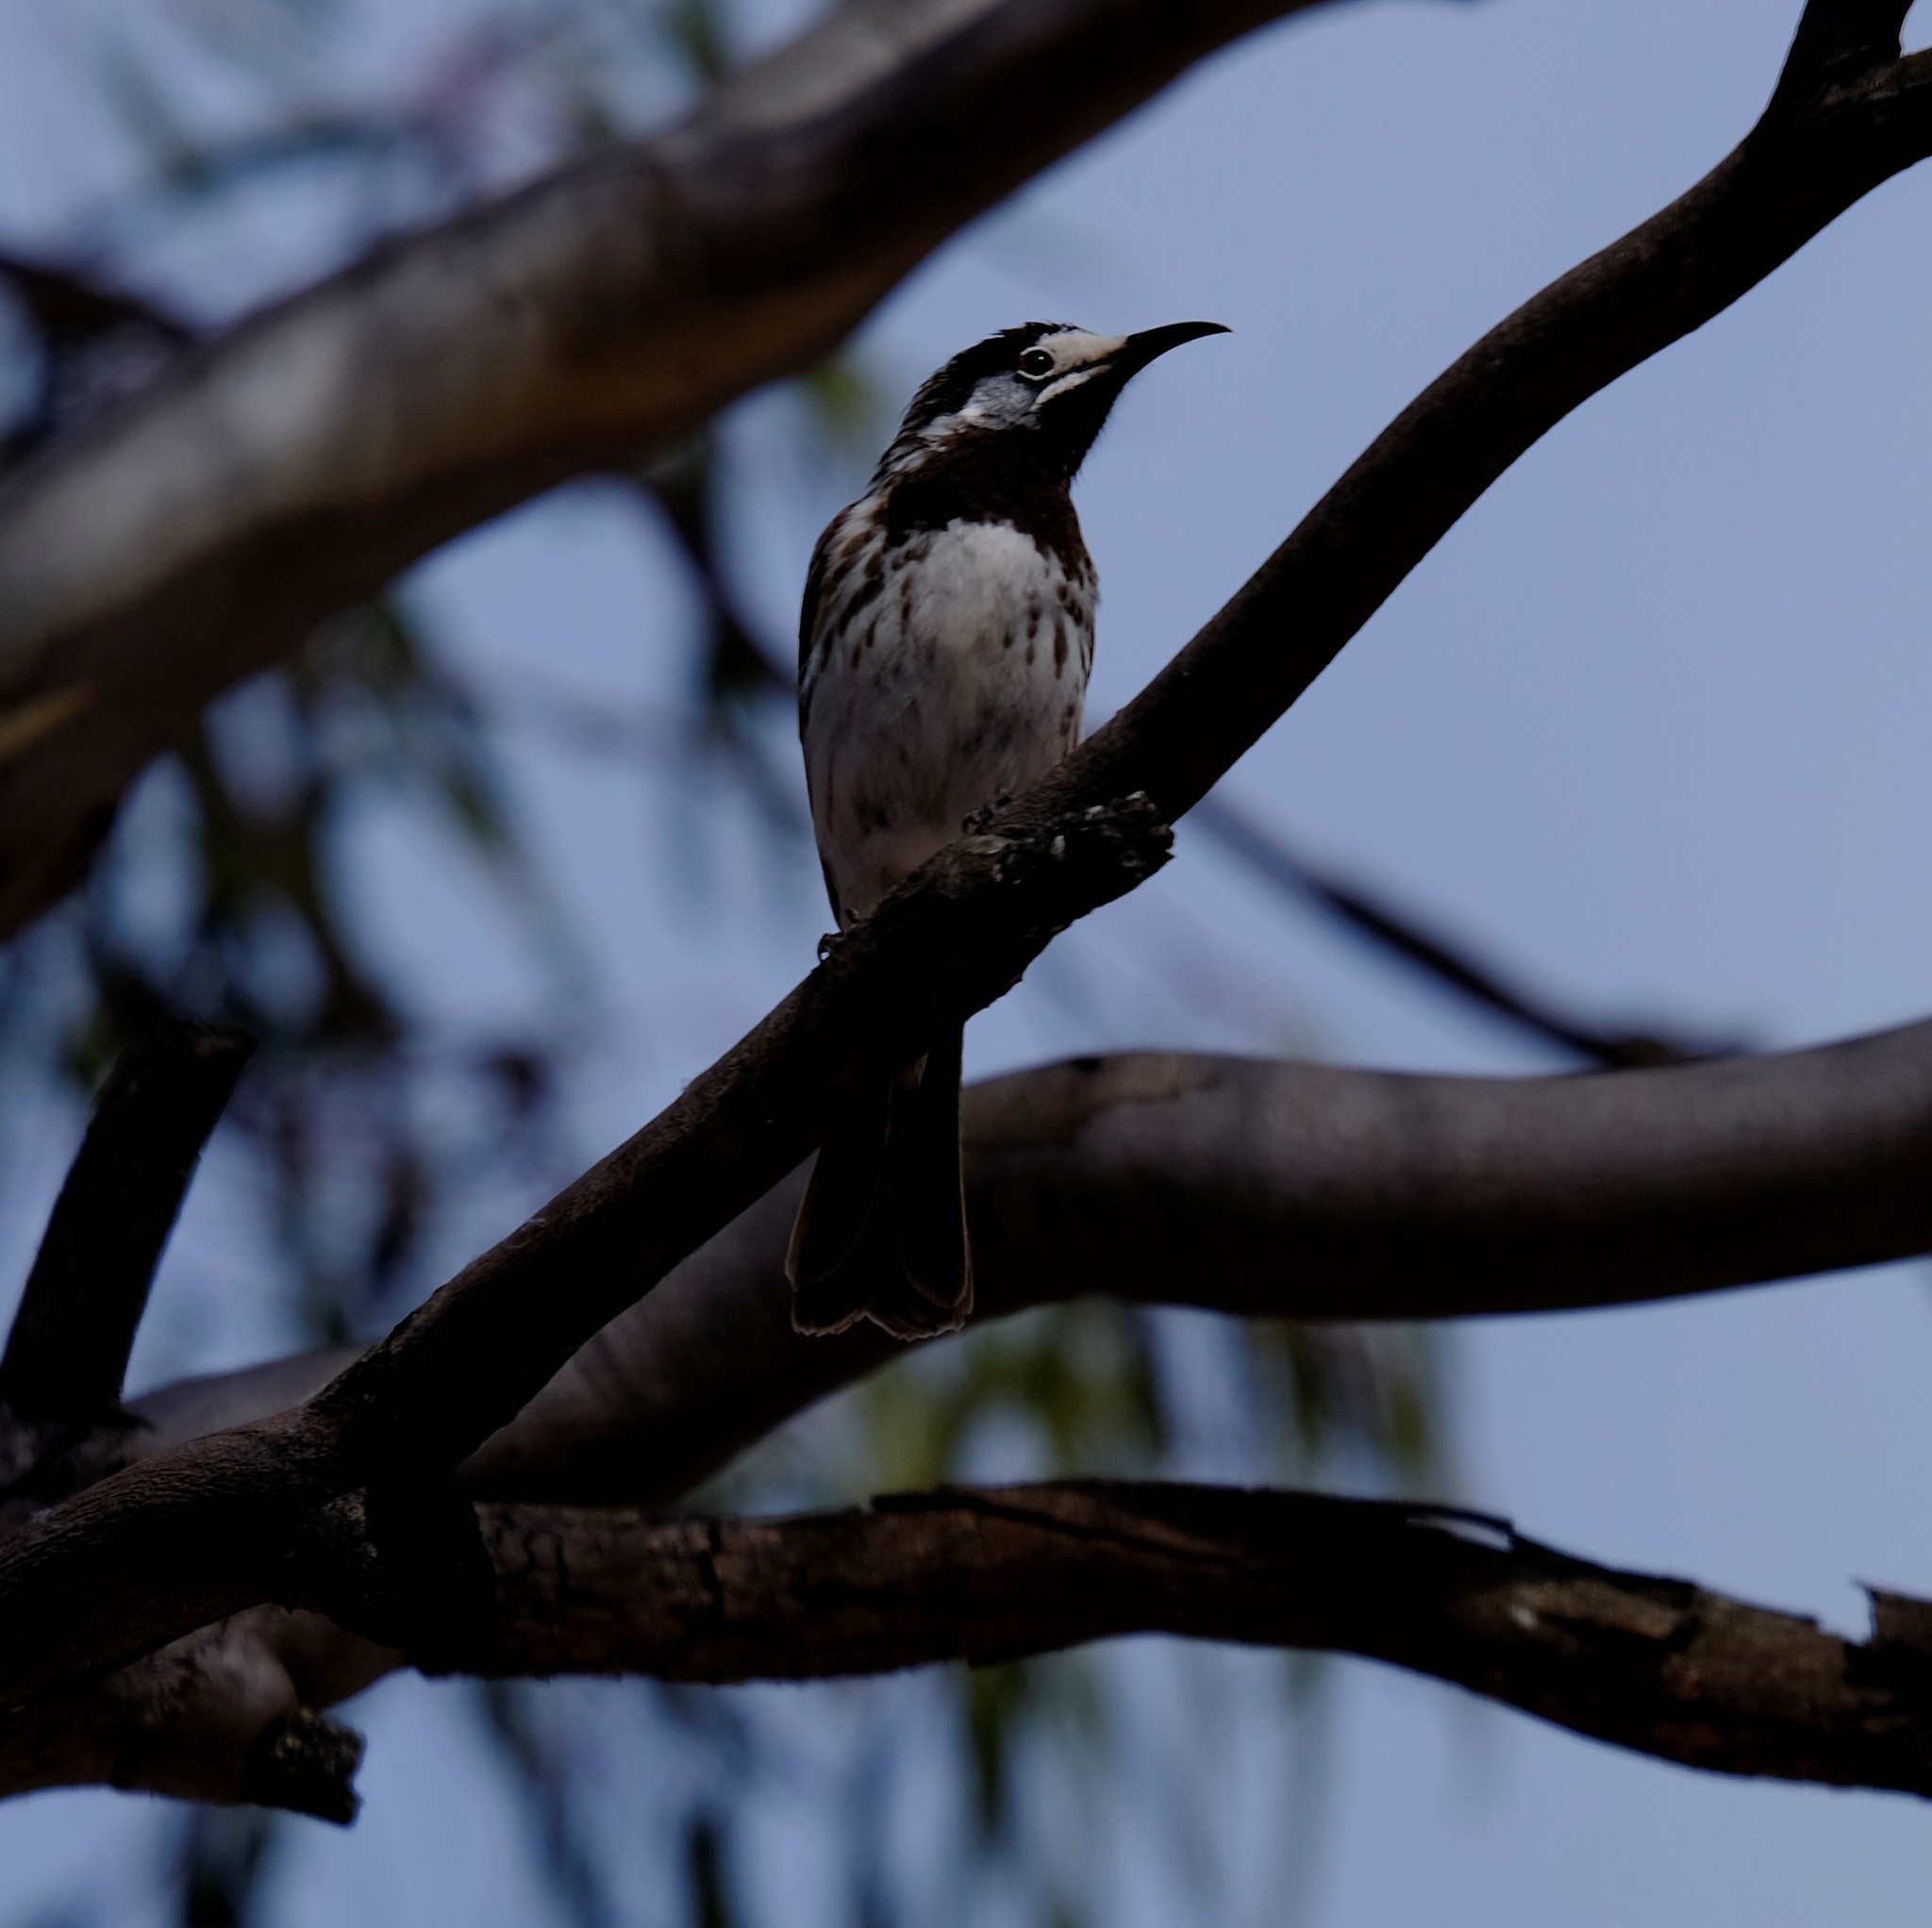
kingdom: Animalia
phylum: Chordata
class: Aves
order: Passeriformes
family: Meliphagidae
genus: Purnella
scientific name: Purnella albifrons
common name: White-fronted honeyeater
